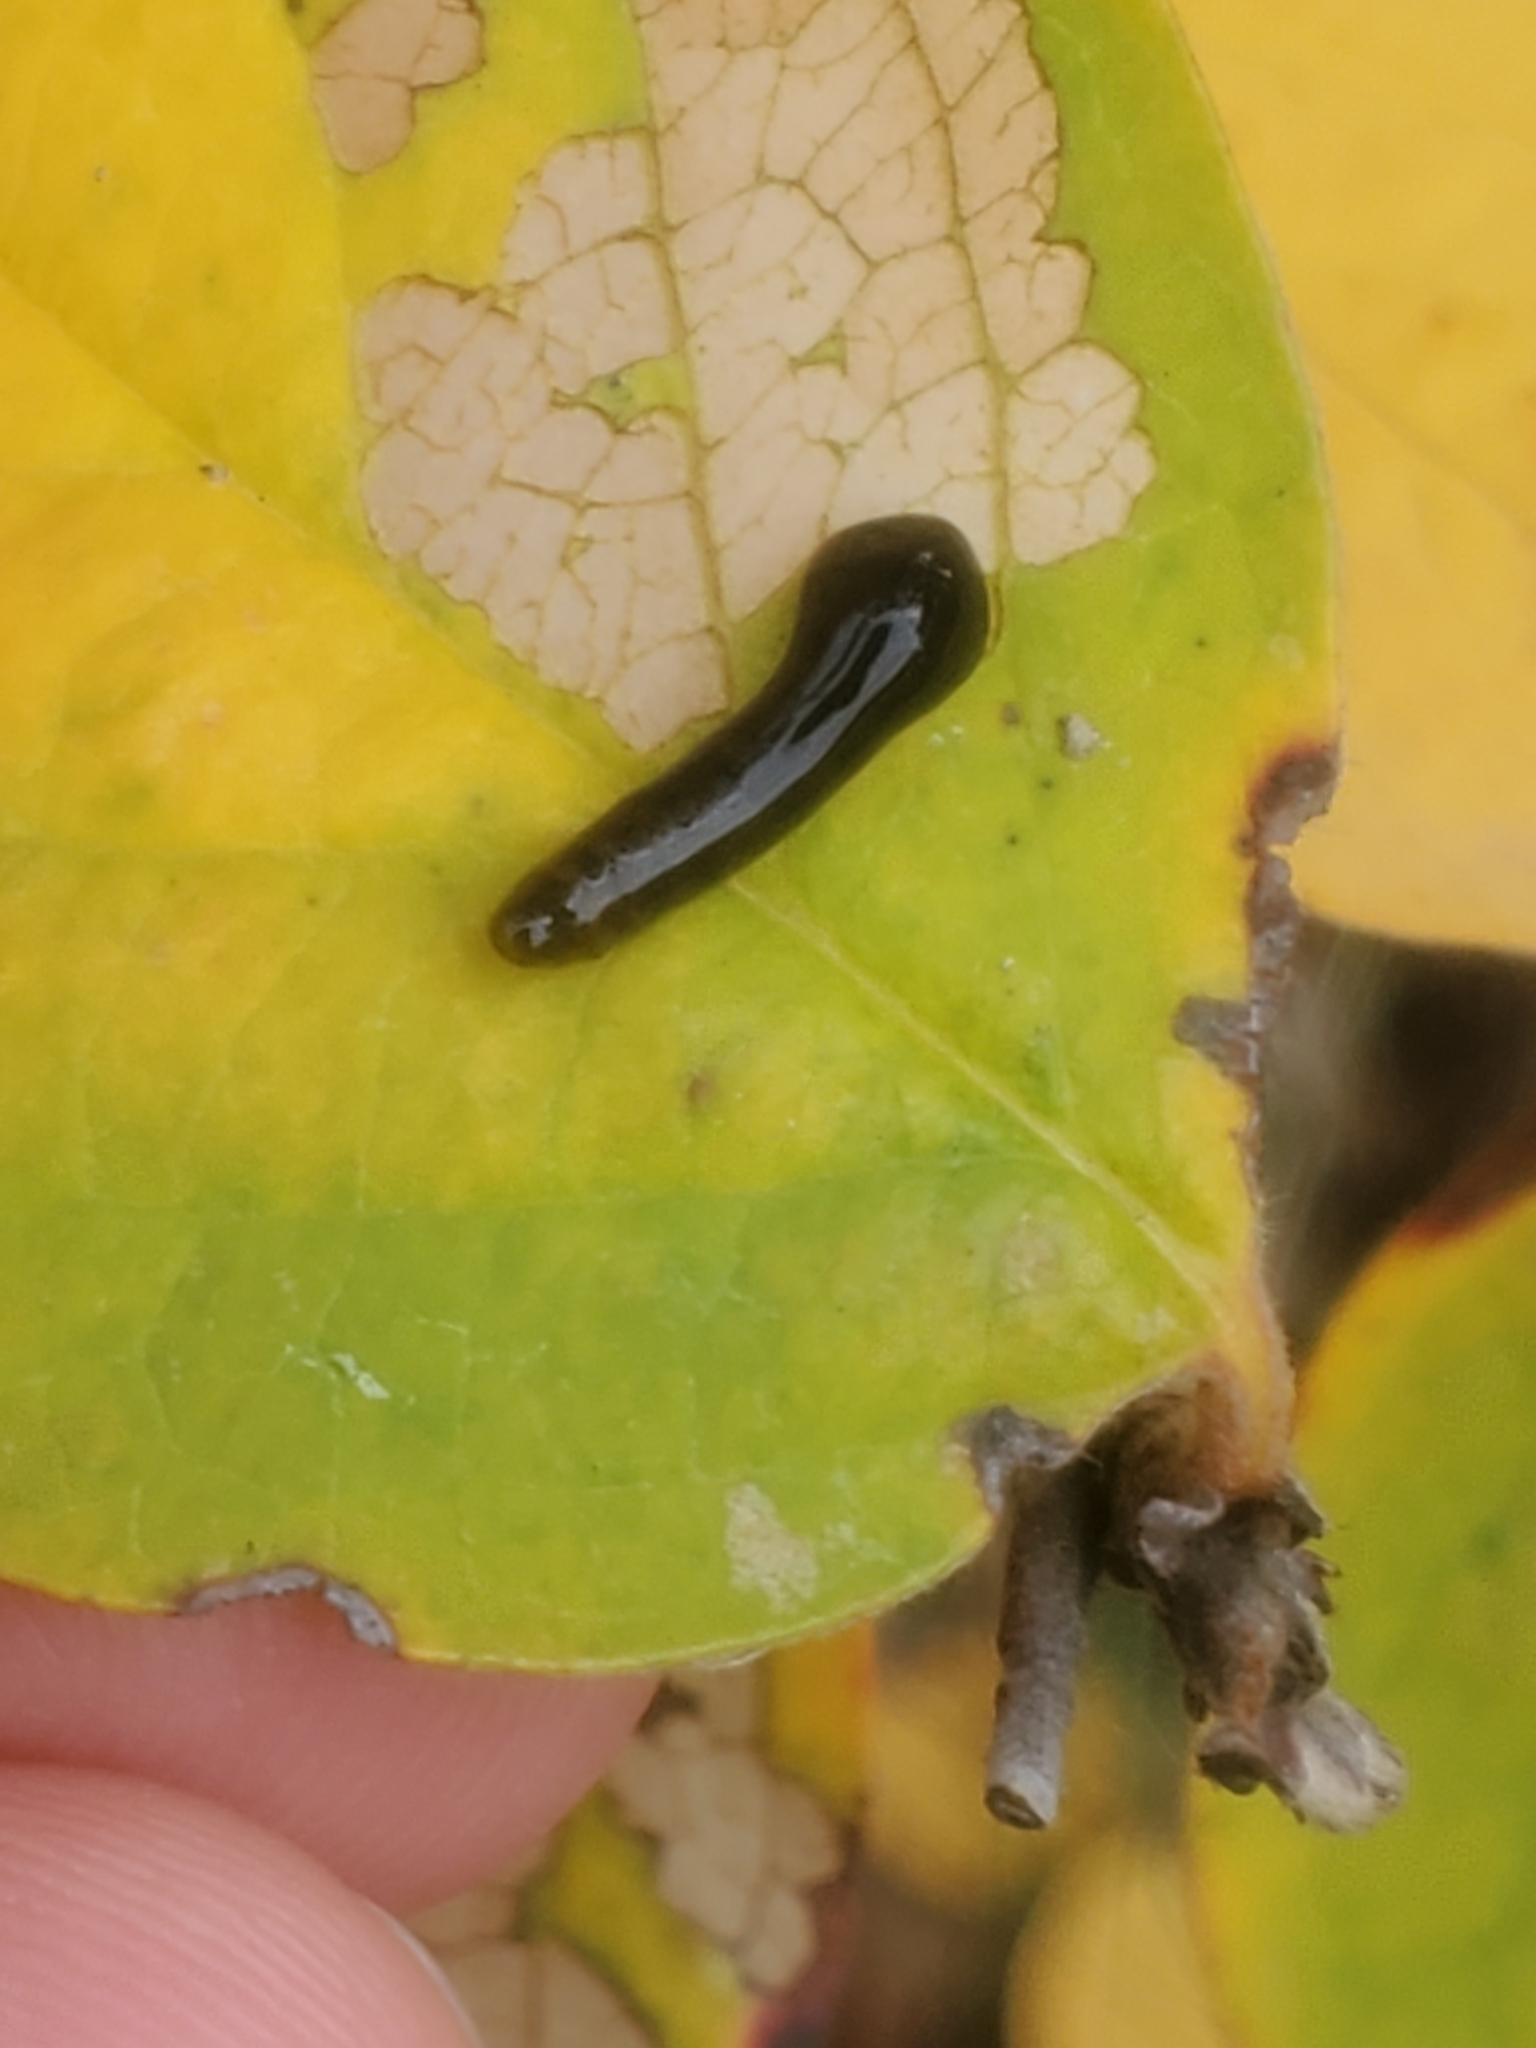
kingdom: Animalia
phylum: Arthropoda
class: Insecta
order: Hymenoptera
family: Tenthredinidae
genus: Caliroa
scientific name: Caliroa cerasi
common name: Pear sawfly
